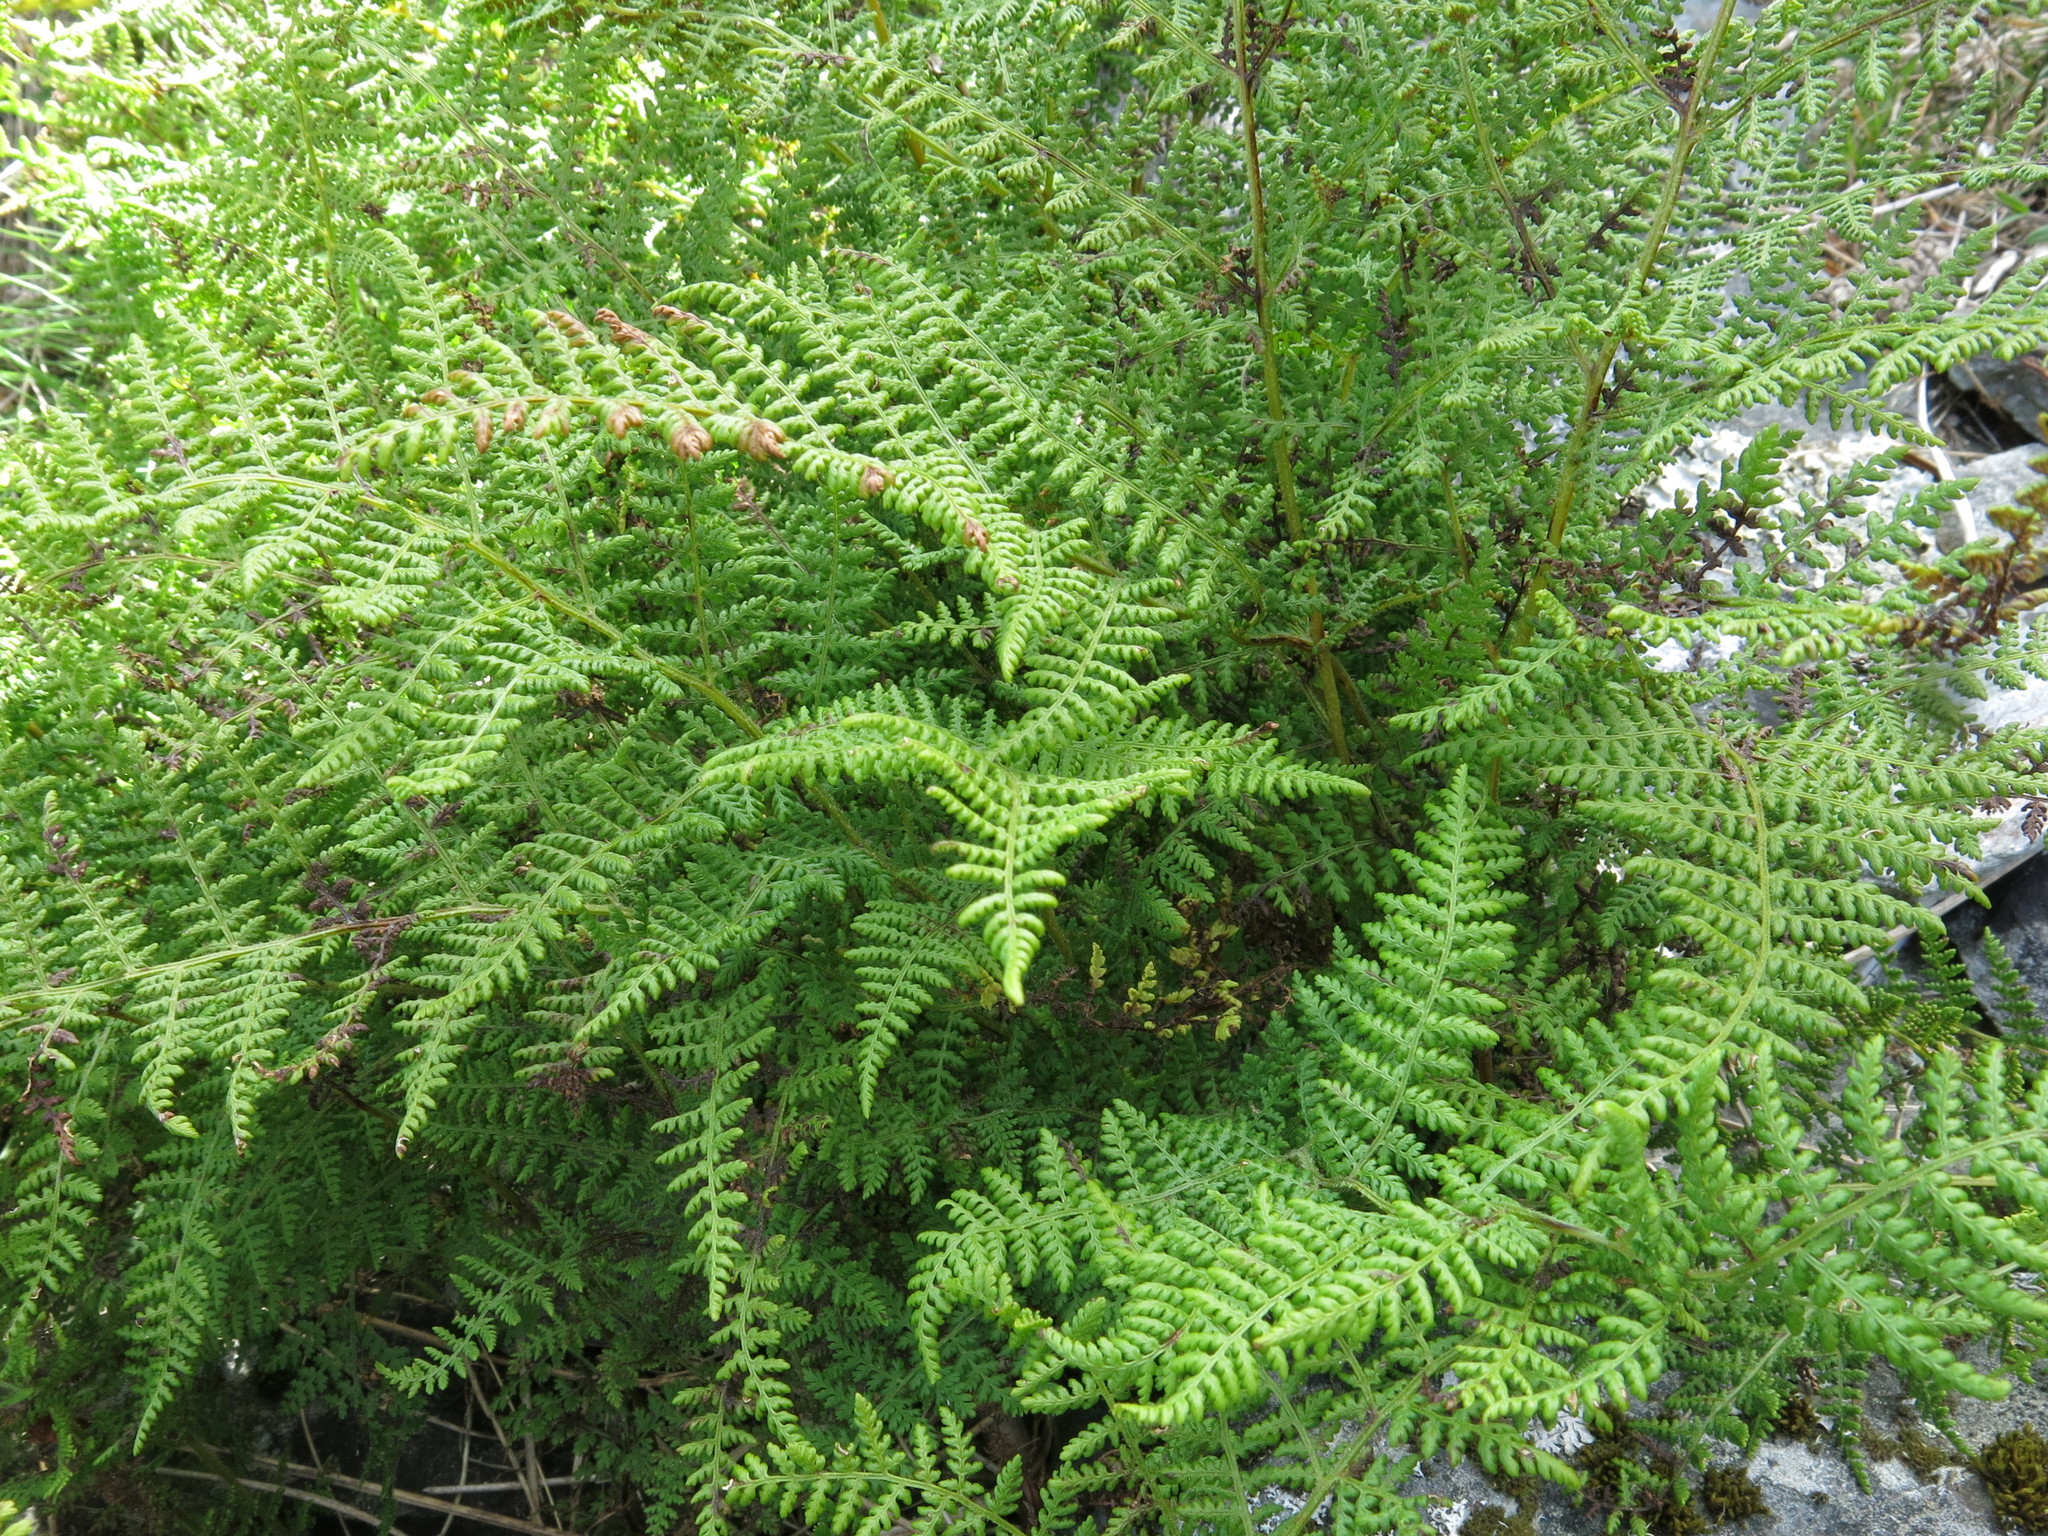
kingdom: Plantae
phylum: Tracheophyta
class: Polypodiopsida
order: Polypodiales
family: Dennstaedtiaceae
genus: Hypolepis
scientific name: Hypolepis millefolium
